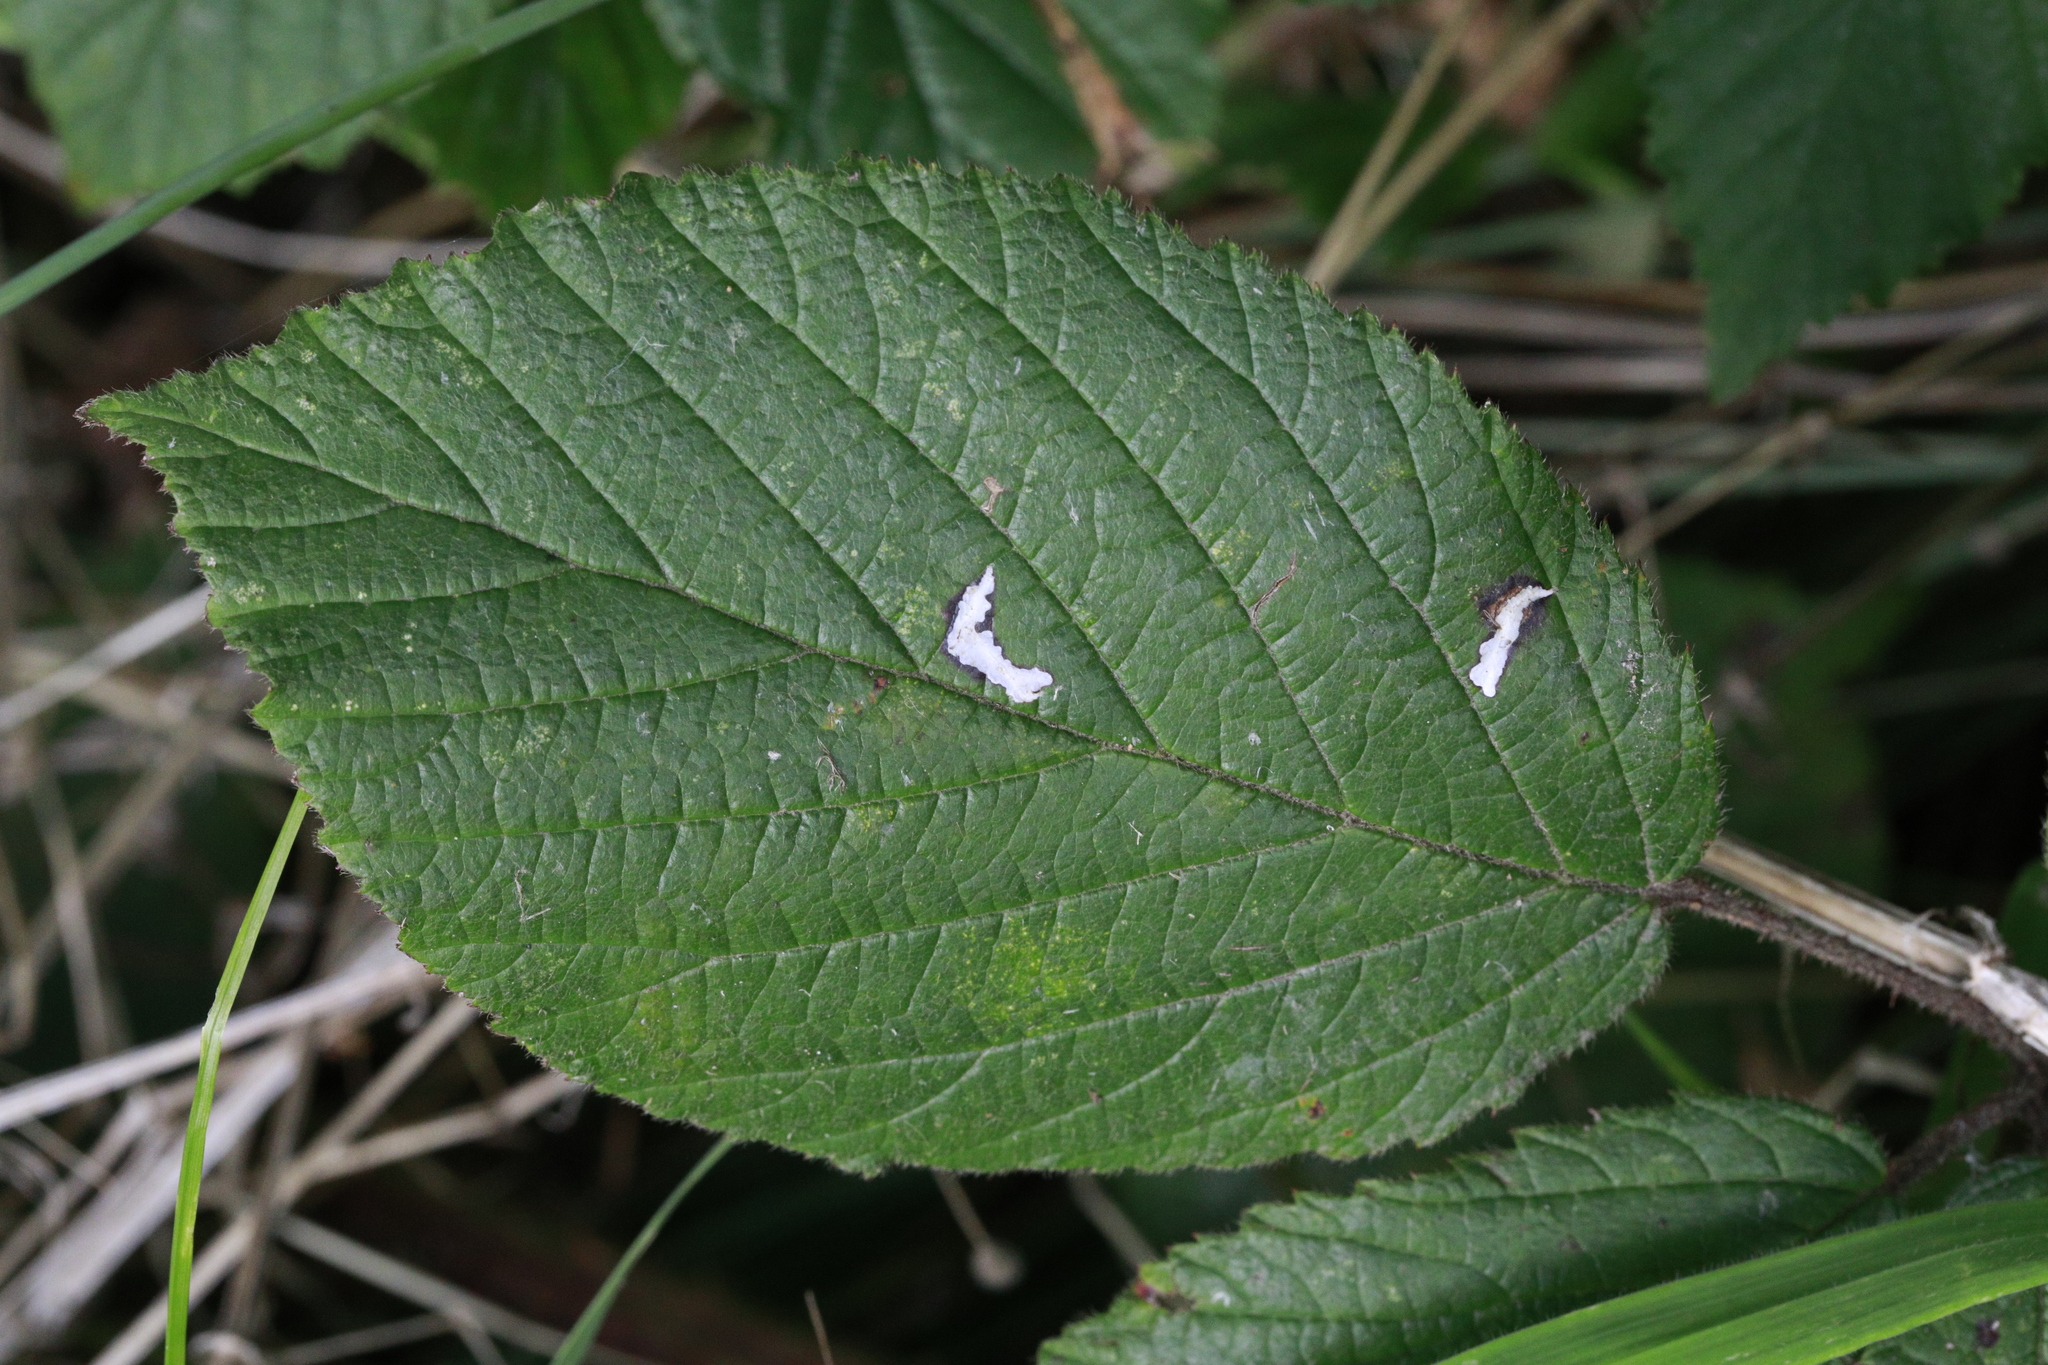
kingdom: Animalia
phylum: Arthropoda
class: Insecta
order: Lepidoptera
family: Tischeriidae
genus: Coptotriche
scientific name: Coptotriche marginea
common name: Bordered carl
